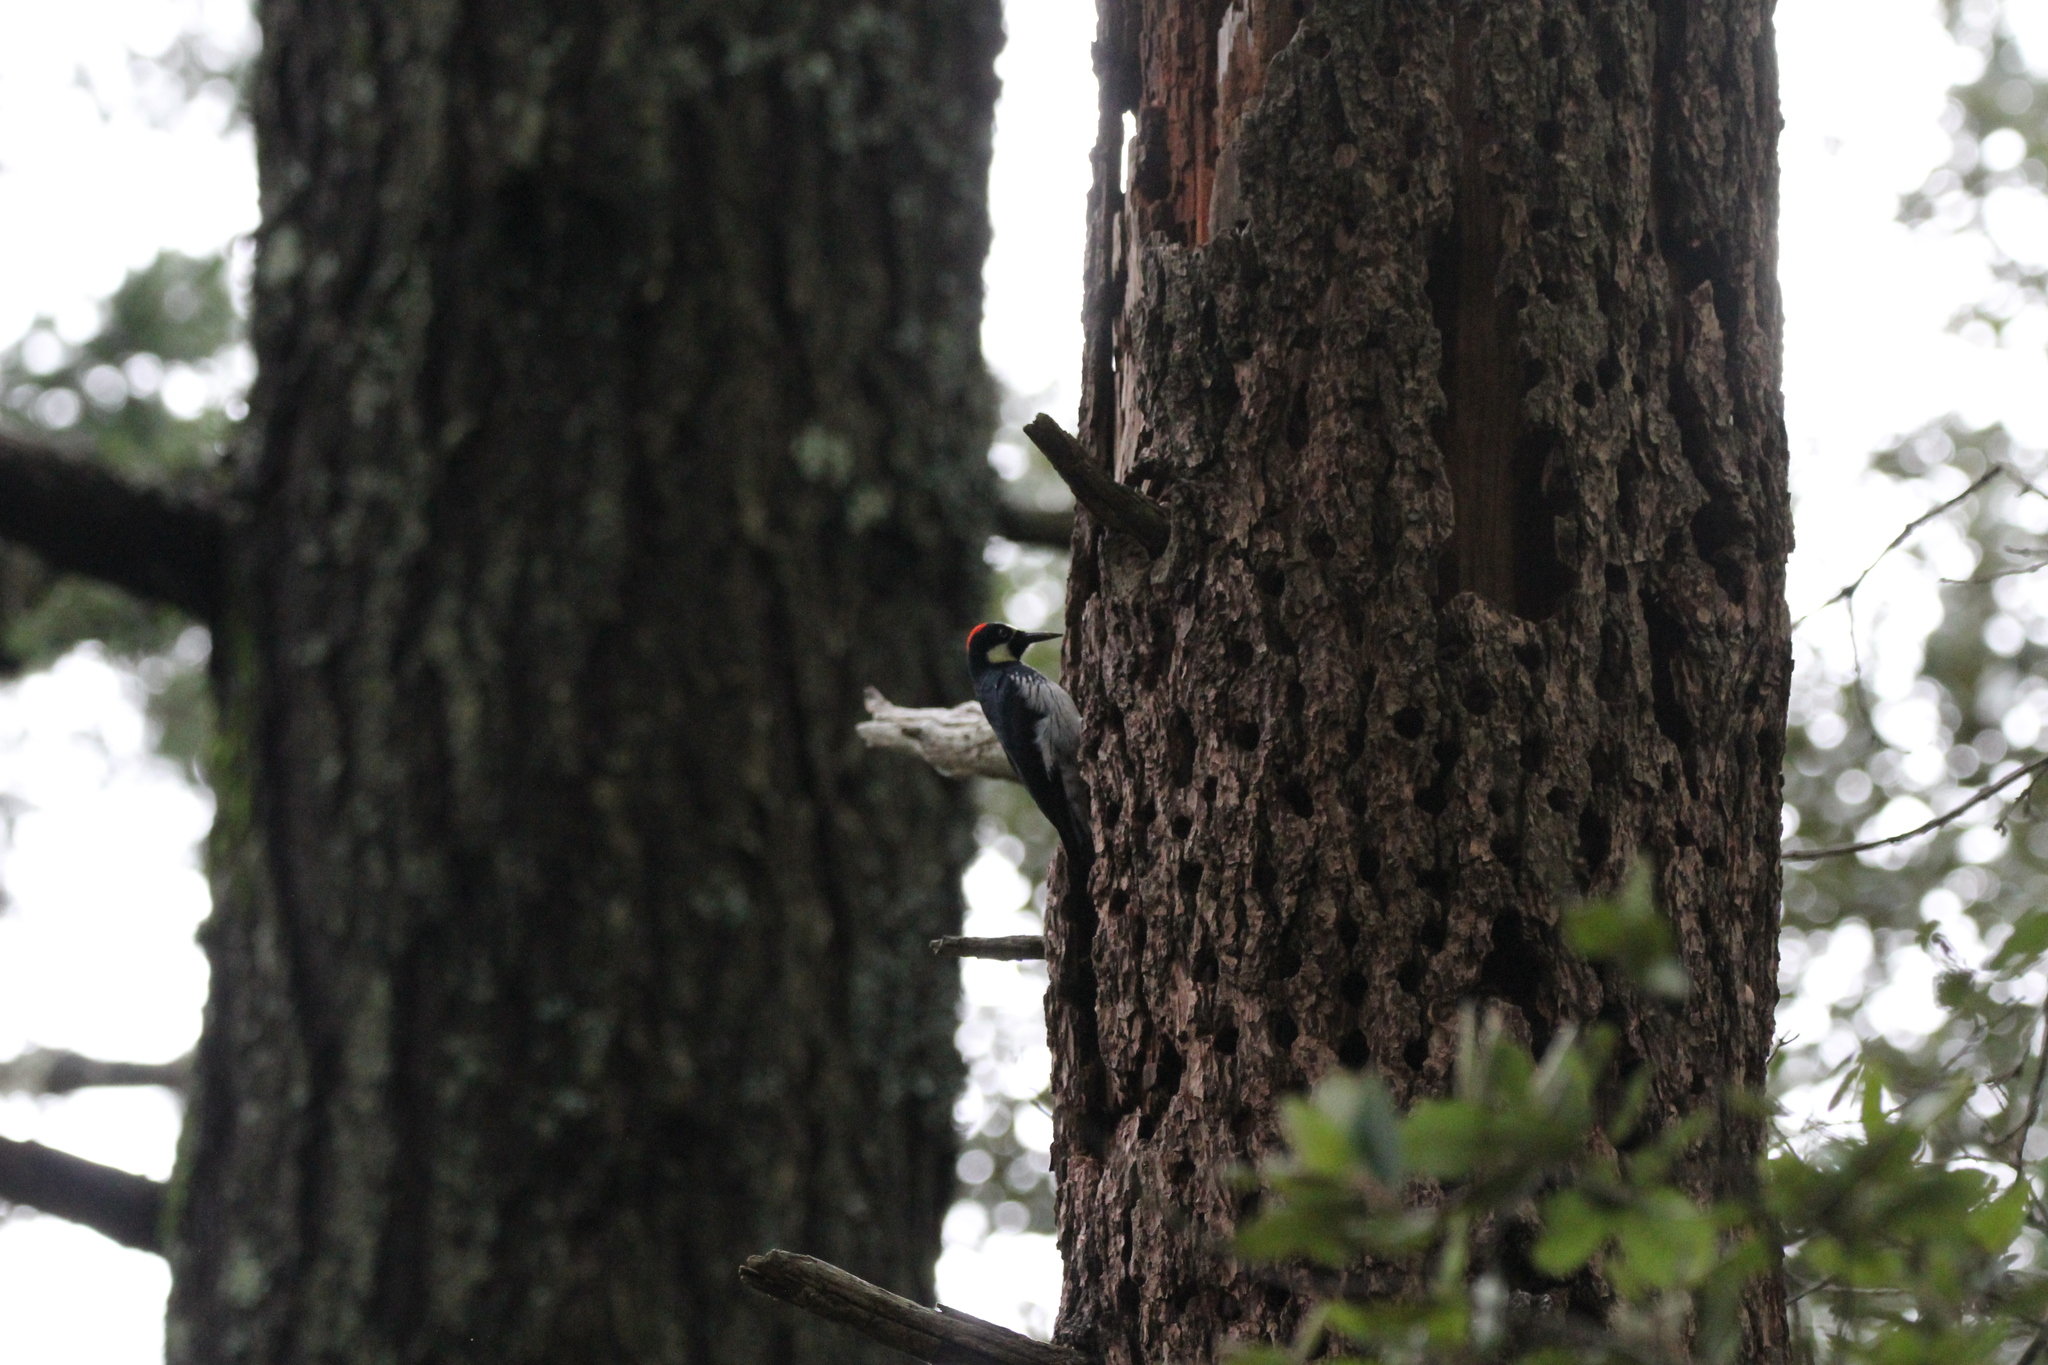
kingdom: Animalia
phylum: Chordata
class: Aves
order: Piciformes
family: Picidae
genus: Melanerpes
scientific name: Melanerpes formicivorus
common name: Acorn woodpecker
